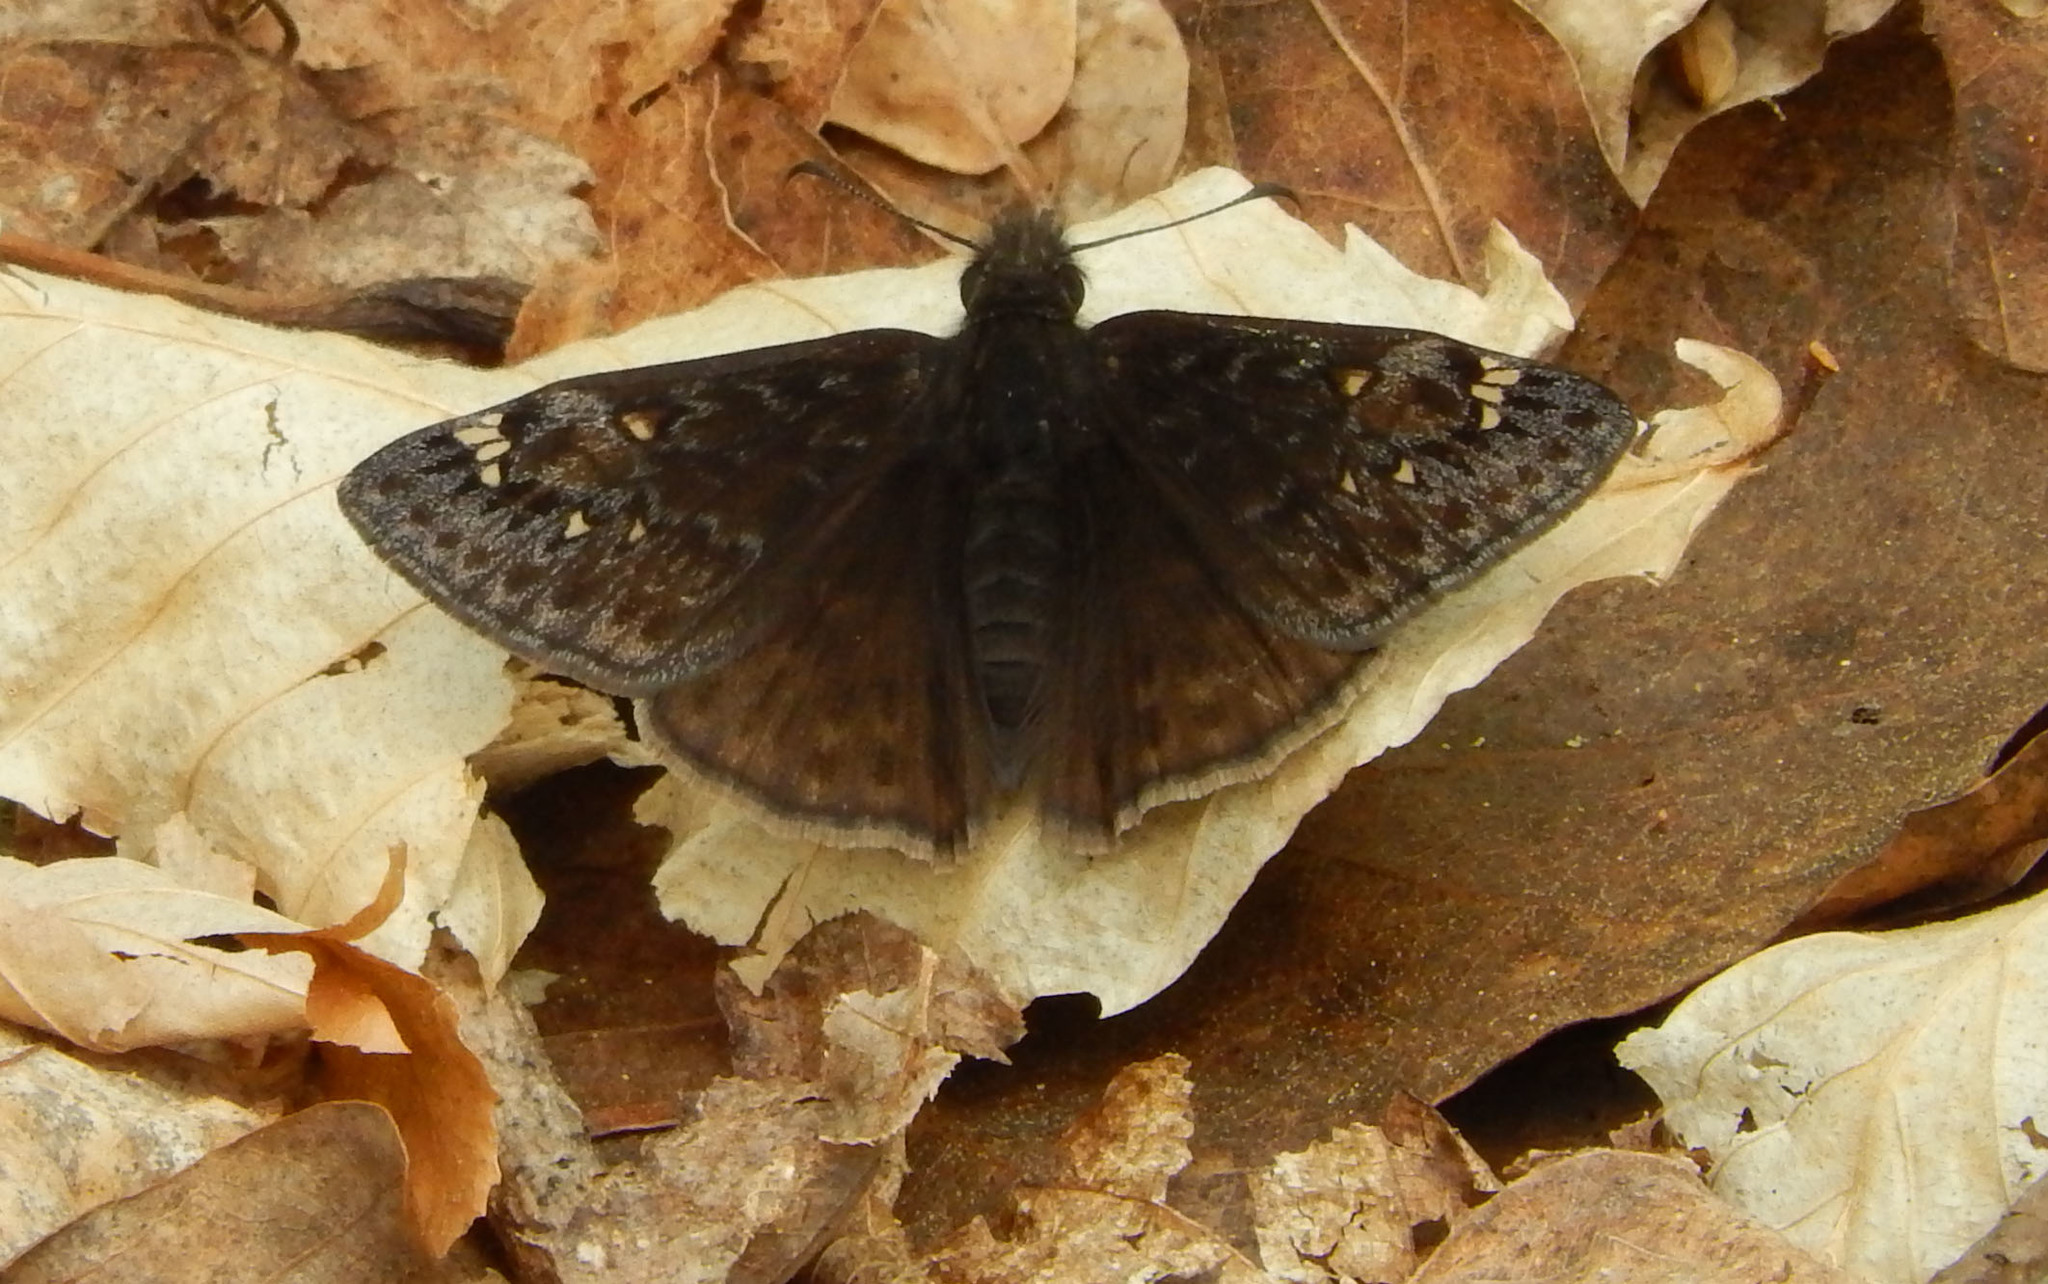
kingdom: Animalia
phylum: Arthropoda
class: Insecta
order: Lepidoptera
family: Hesperiidae
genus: Erynnis
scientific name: Erynnis juvenalis
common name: Juvenal's duskywing
